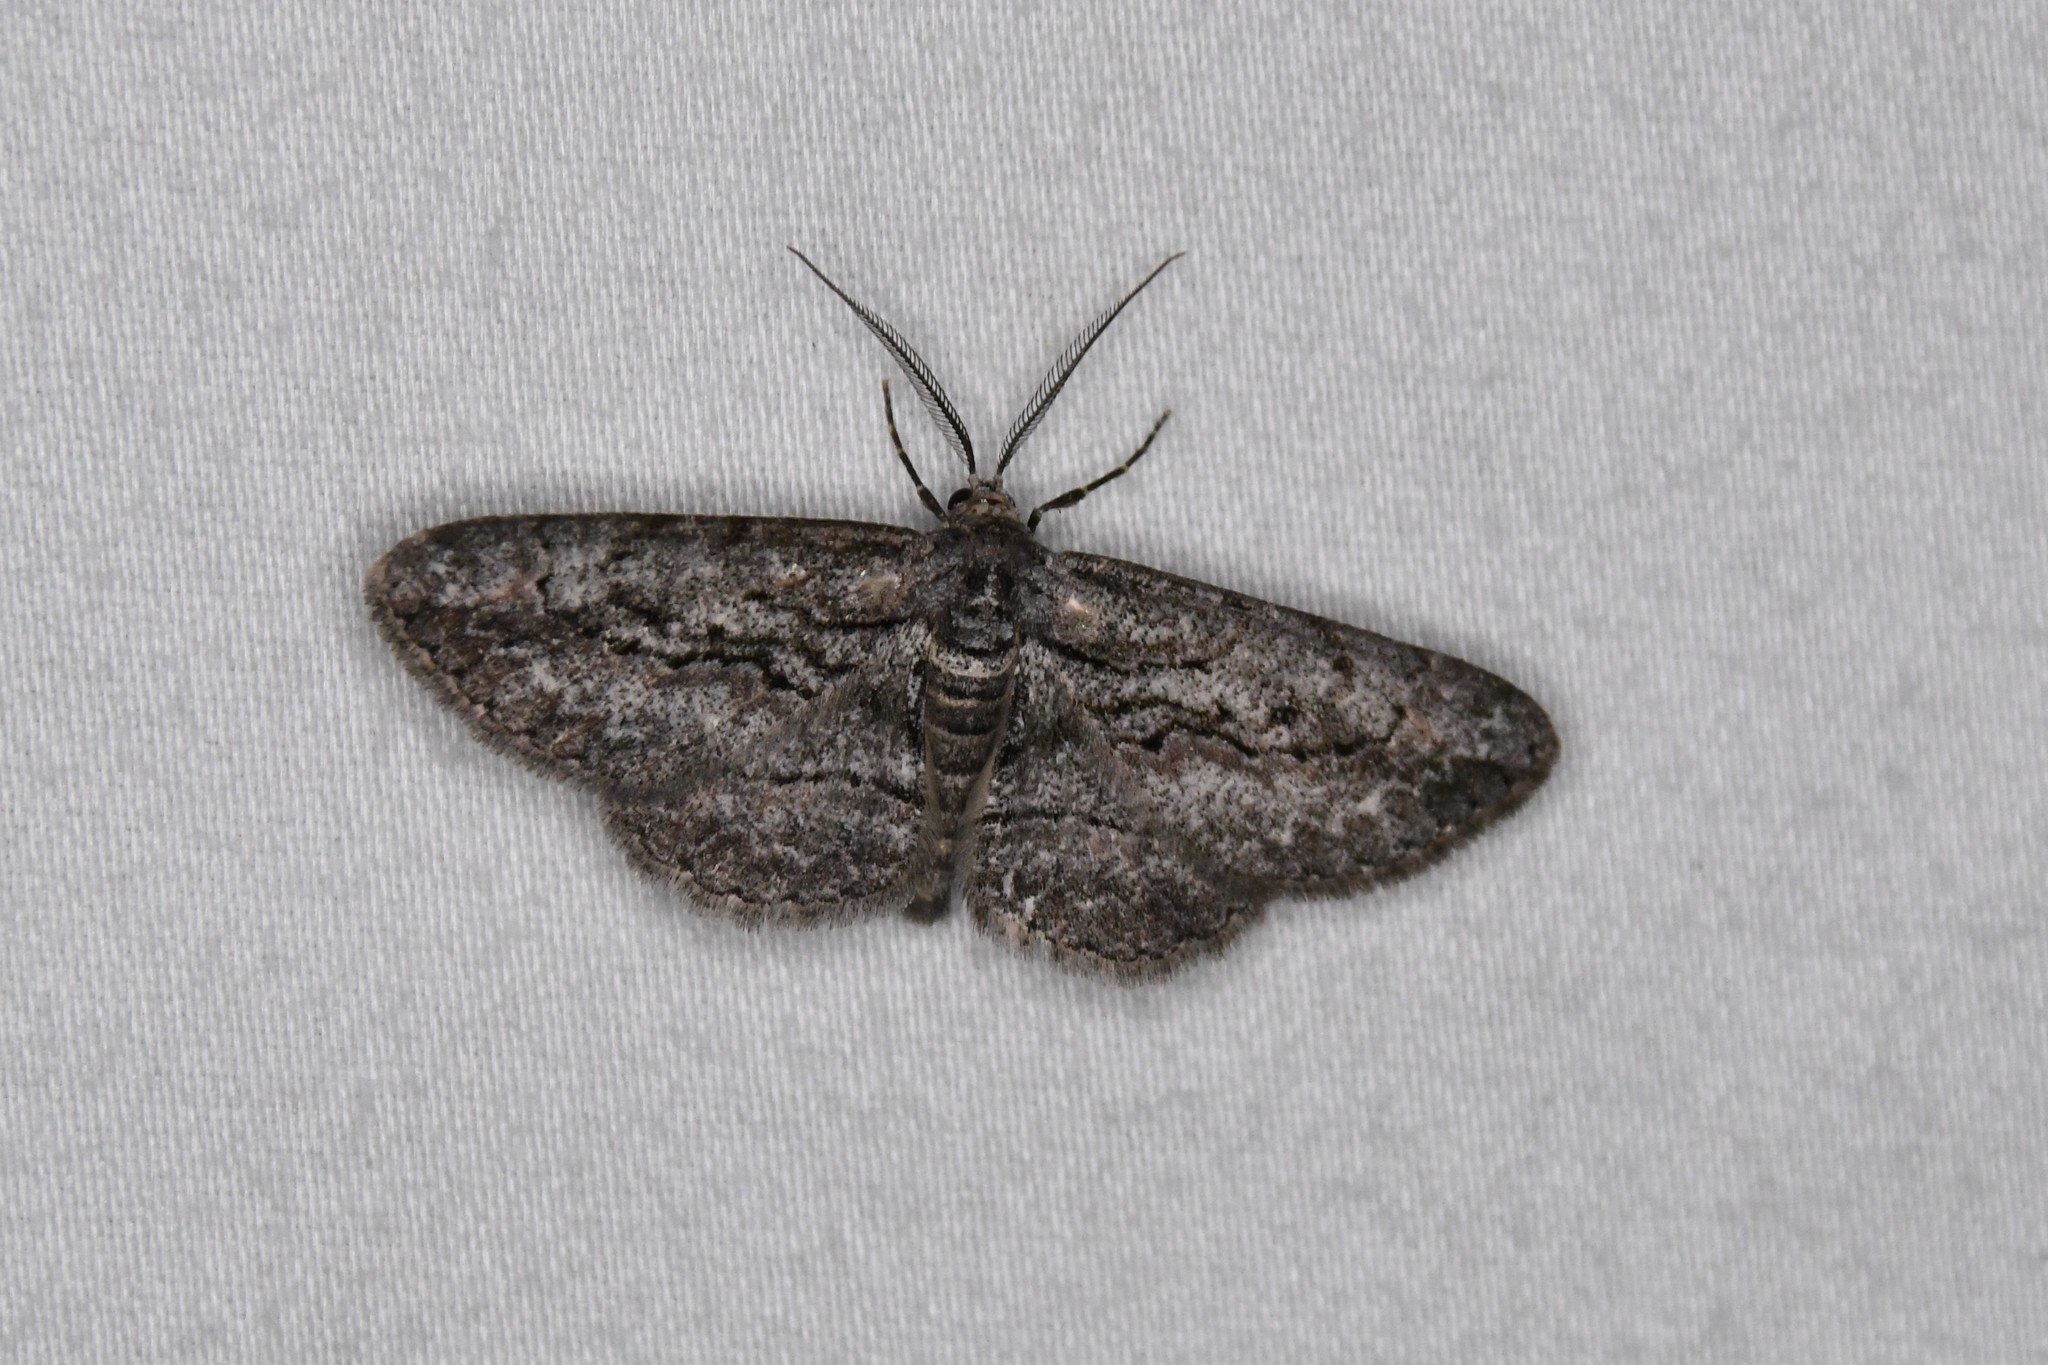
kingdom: Animalia
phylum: Arthropoda
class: Insecta
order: Lepidoptera
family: Geometridae
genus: Anavitrinella
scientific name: Anavitrinella pampinaria
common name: Common gray
